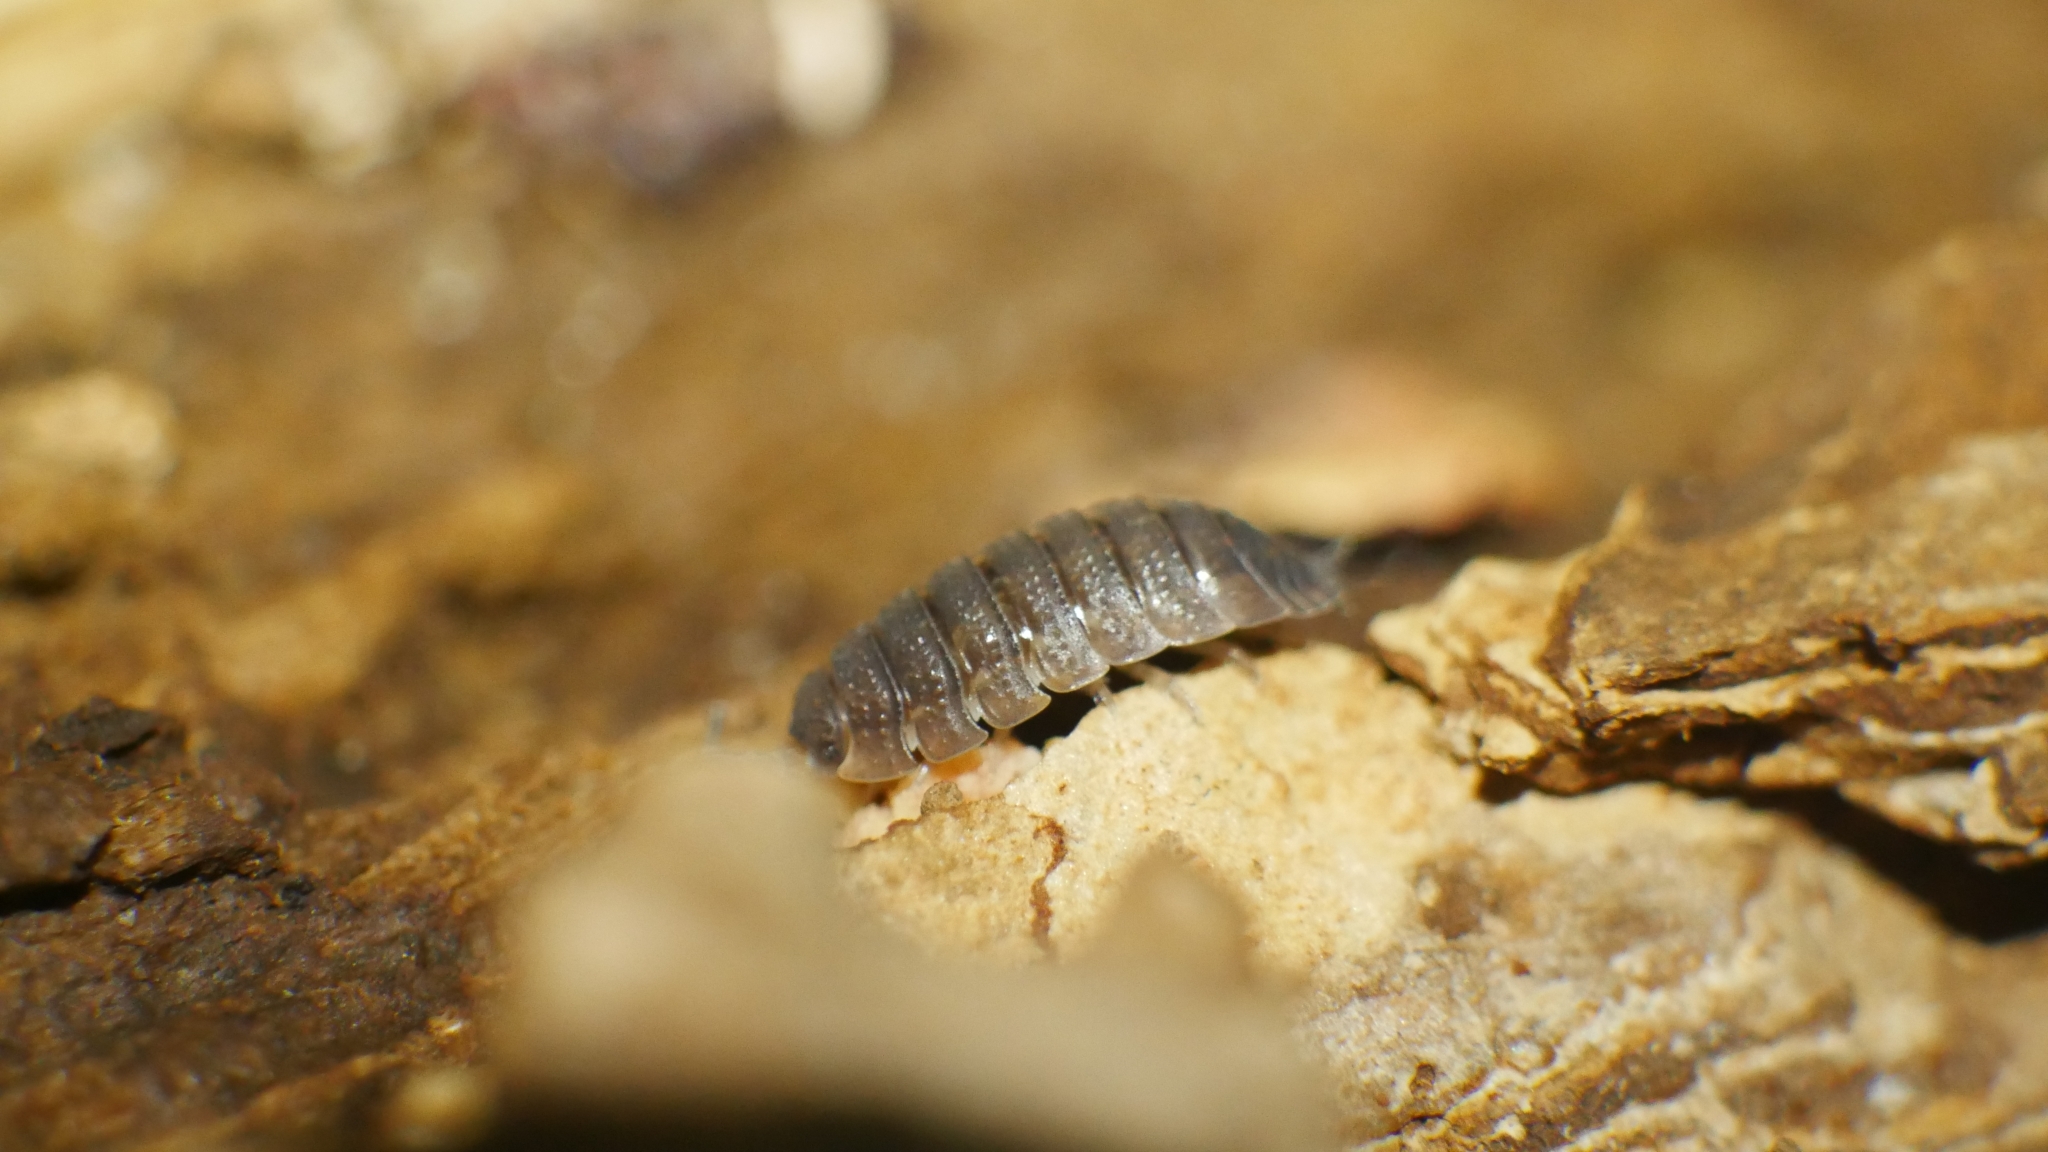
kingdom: Animalia
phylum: Arthropoda
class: Malacostraca
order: Isopoda
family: Porcellionidae
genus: Porcellio
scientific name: Porcellio scaber
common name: Common rough woodlouse
